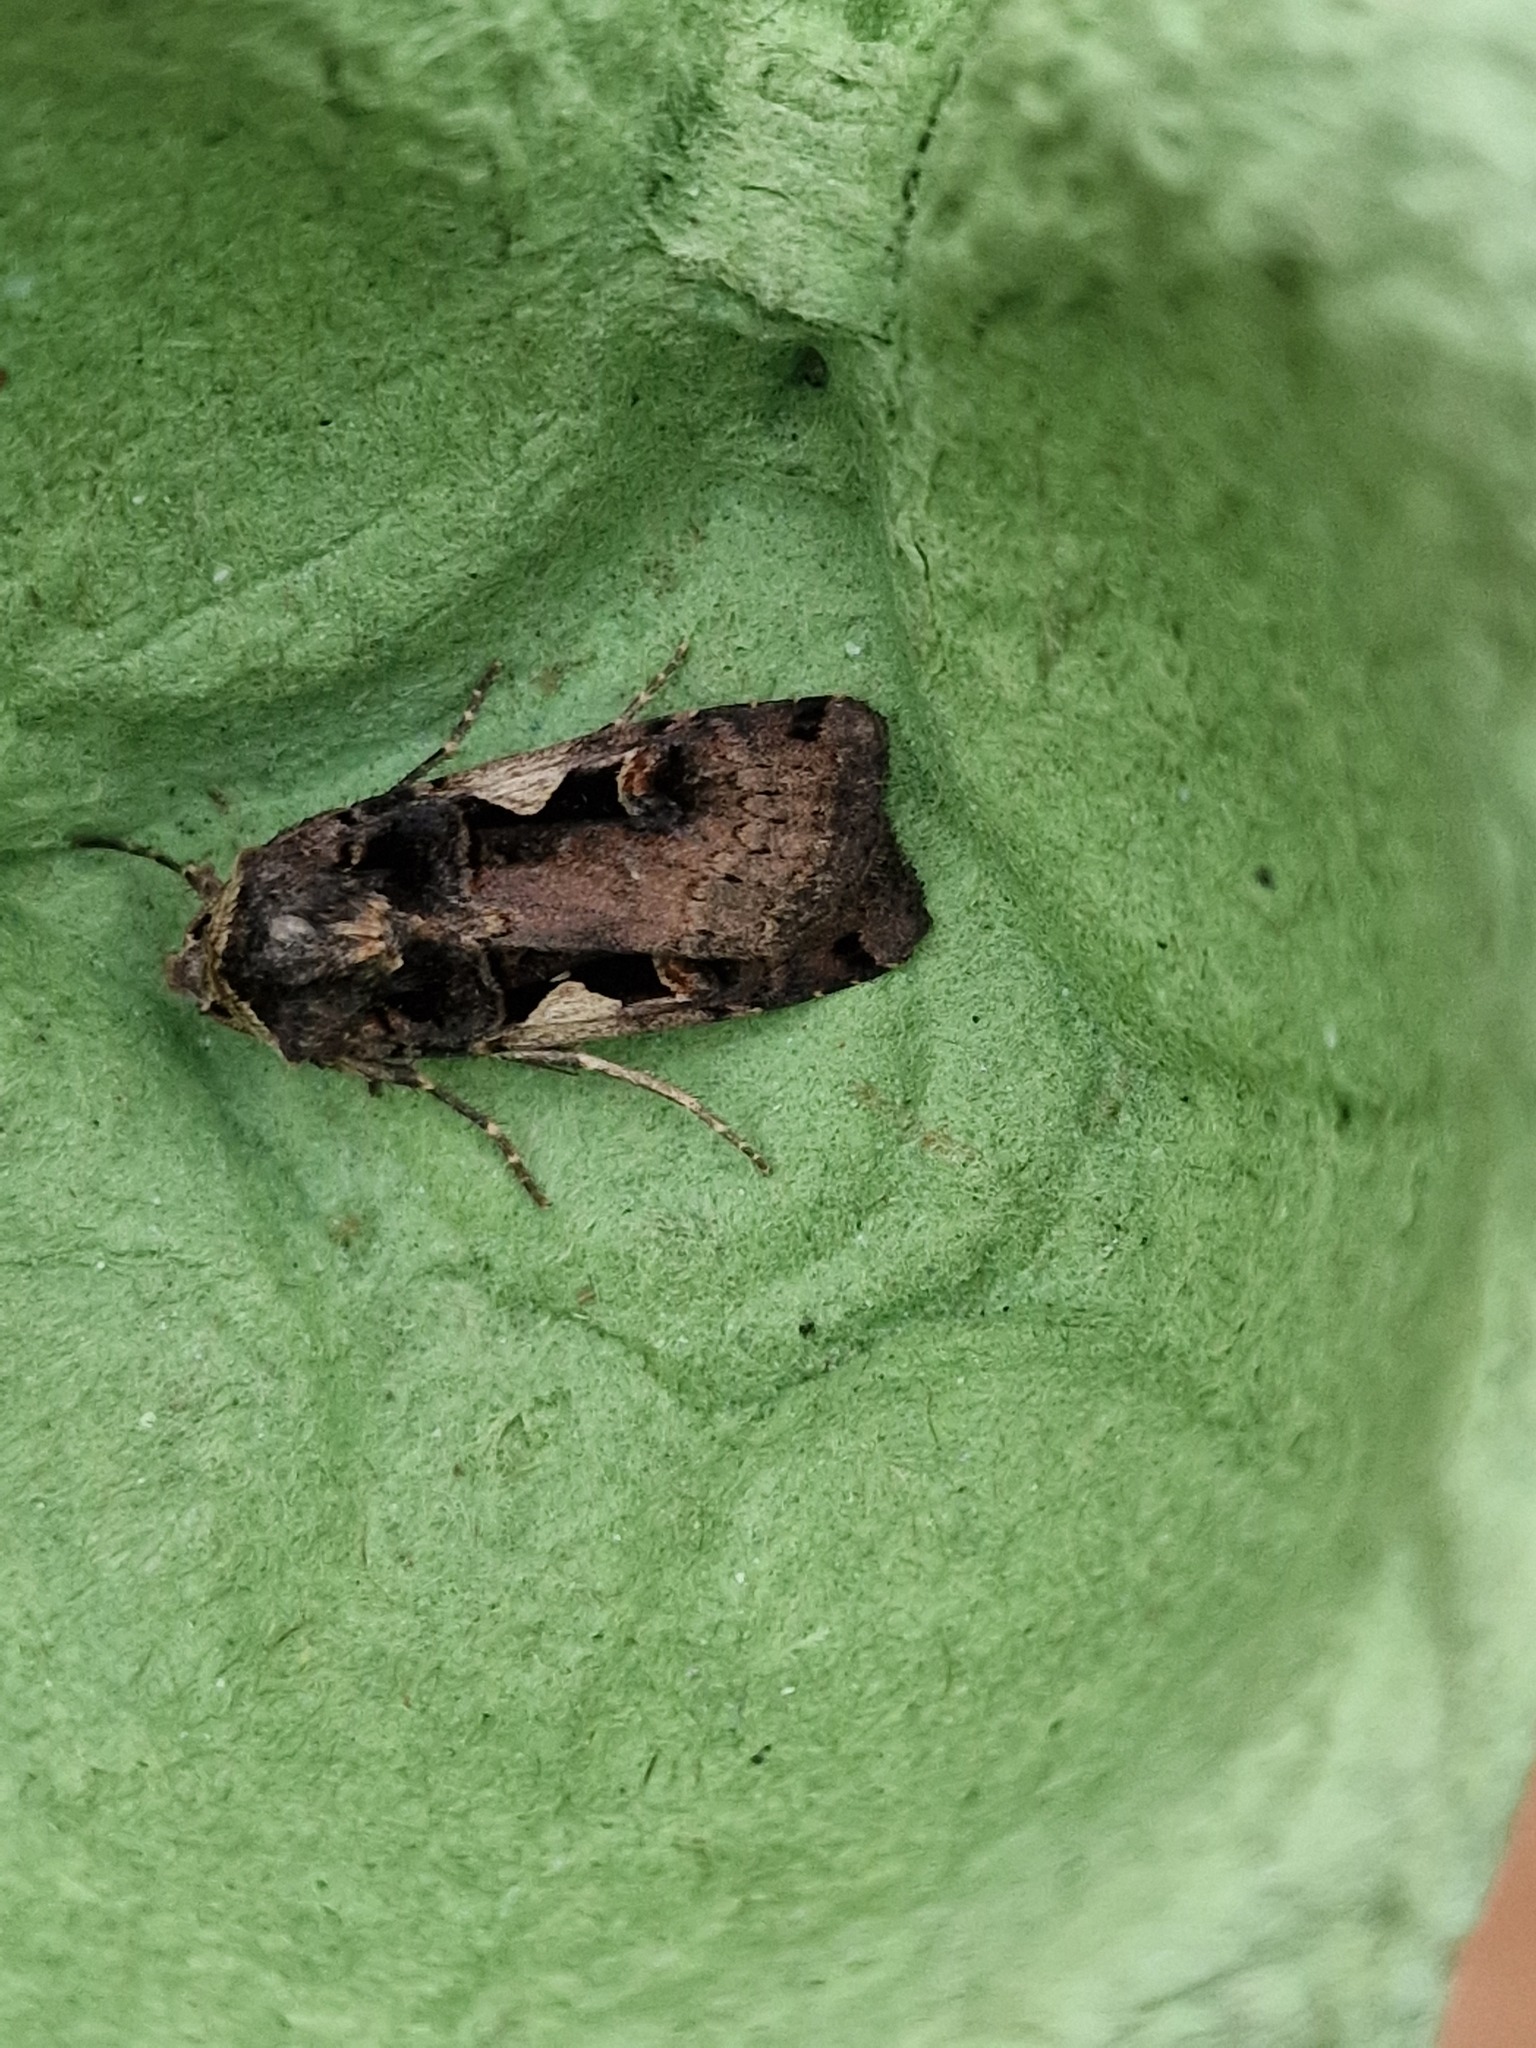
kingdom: Animalia
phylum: Arthropoda
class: Insecta
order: Lepidoptera
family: Noctuidae
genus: Xestia
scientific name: Xestia c-nigrum
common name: Setaceous hebrew character
